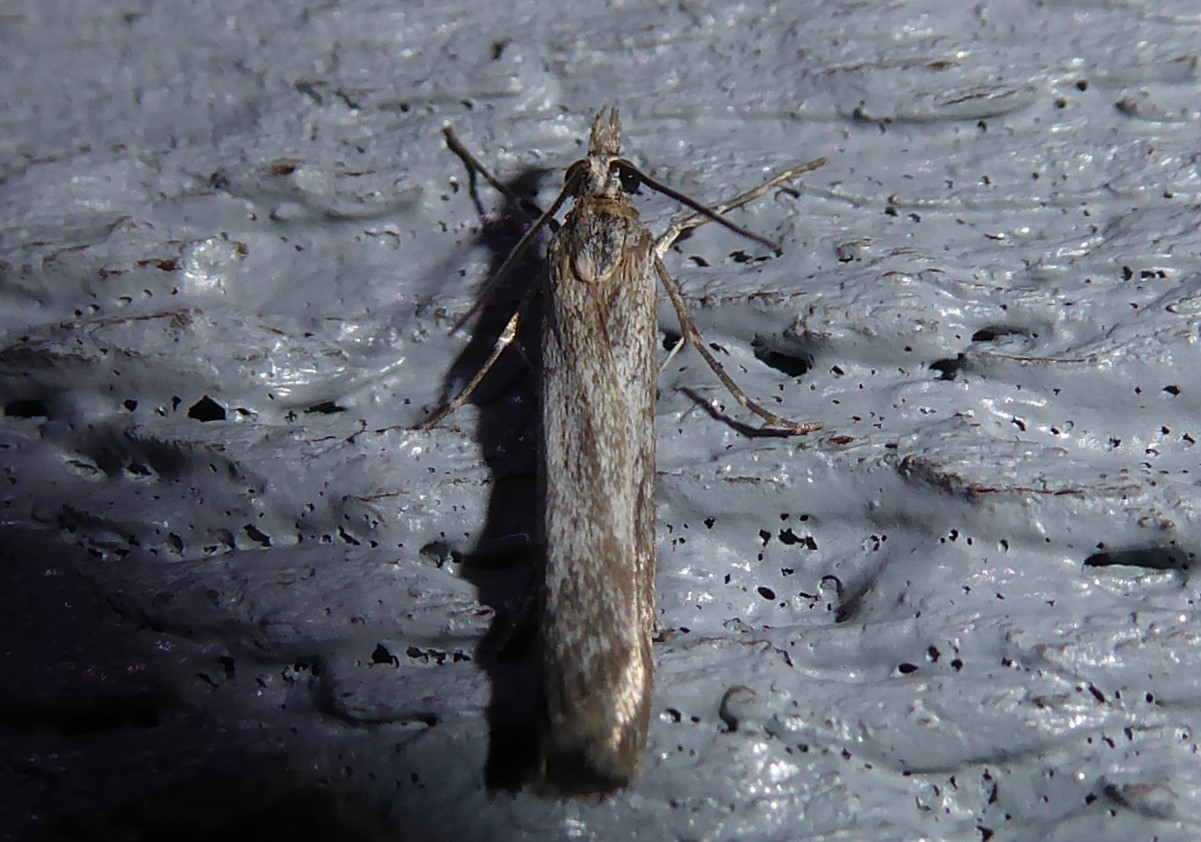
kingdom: Animalia
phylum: Arthropoda
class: Insecta
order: Lepidoptera
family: Crambidae
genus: Eudonia
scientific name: Eudonia leptalea
